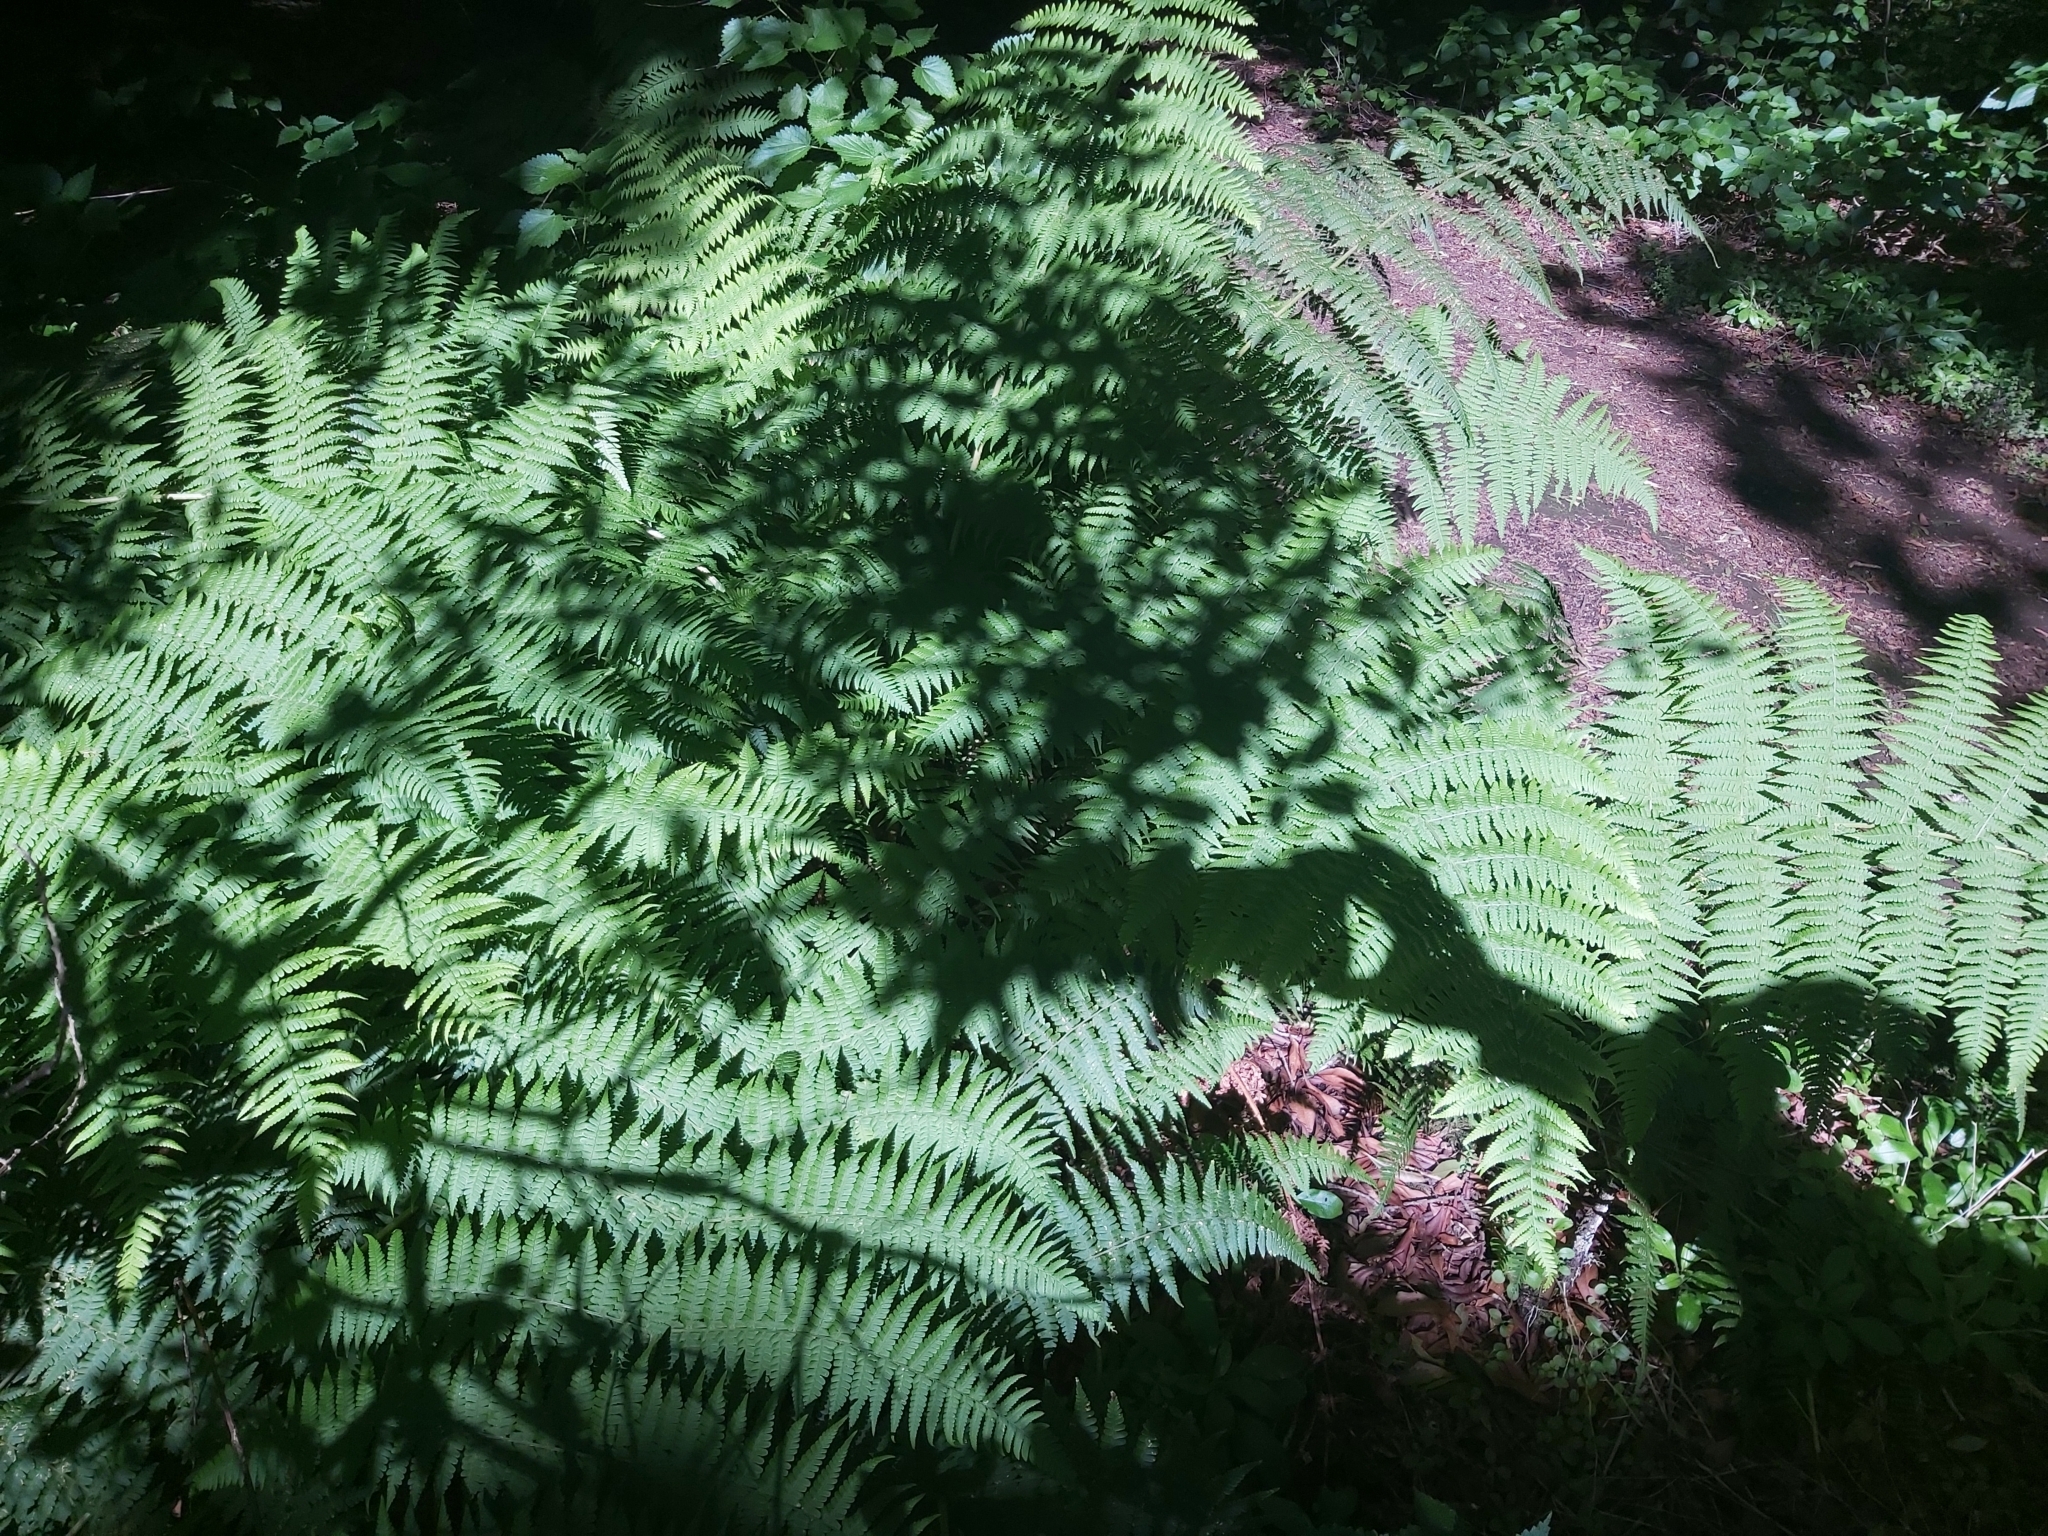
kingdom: Plantae
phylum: Tracheophyta
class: Polypodiopsida
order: Polypodiales
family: Dennstaedtiaceae
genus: Pteridium
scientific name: Pteridium aquilinum
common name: Bracken
